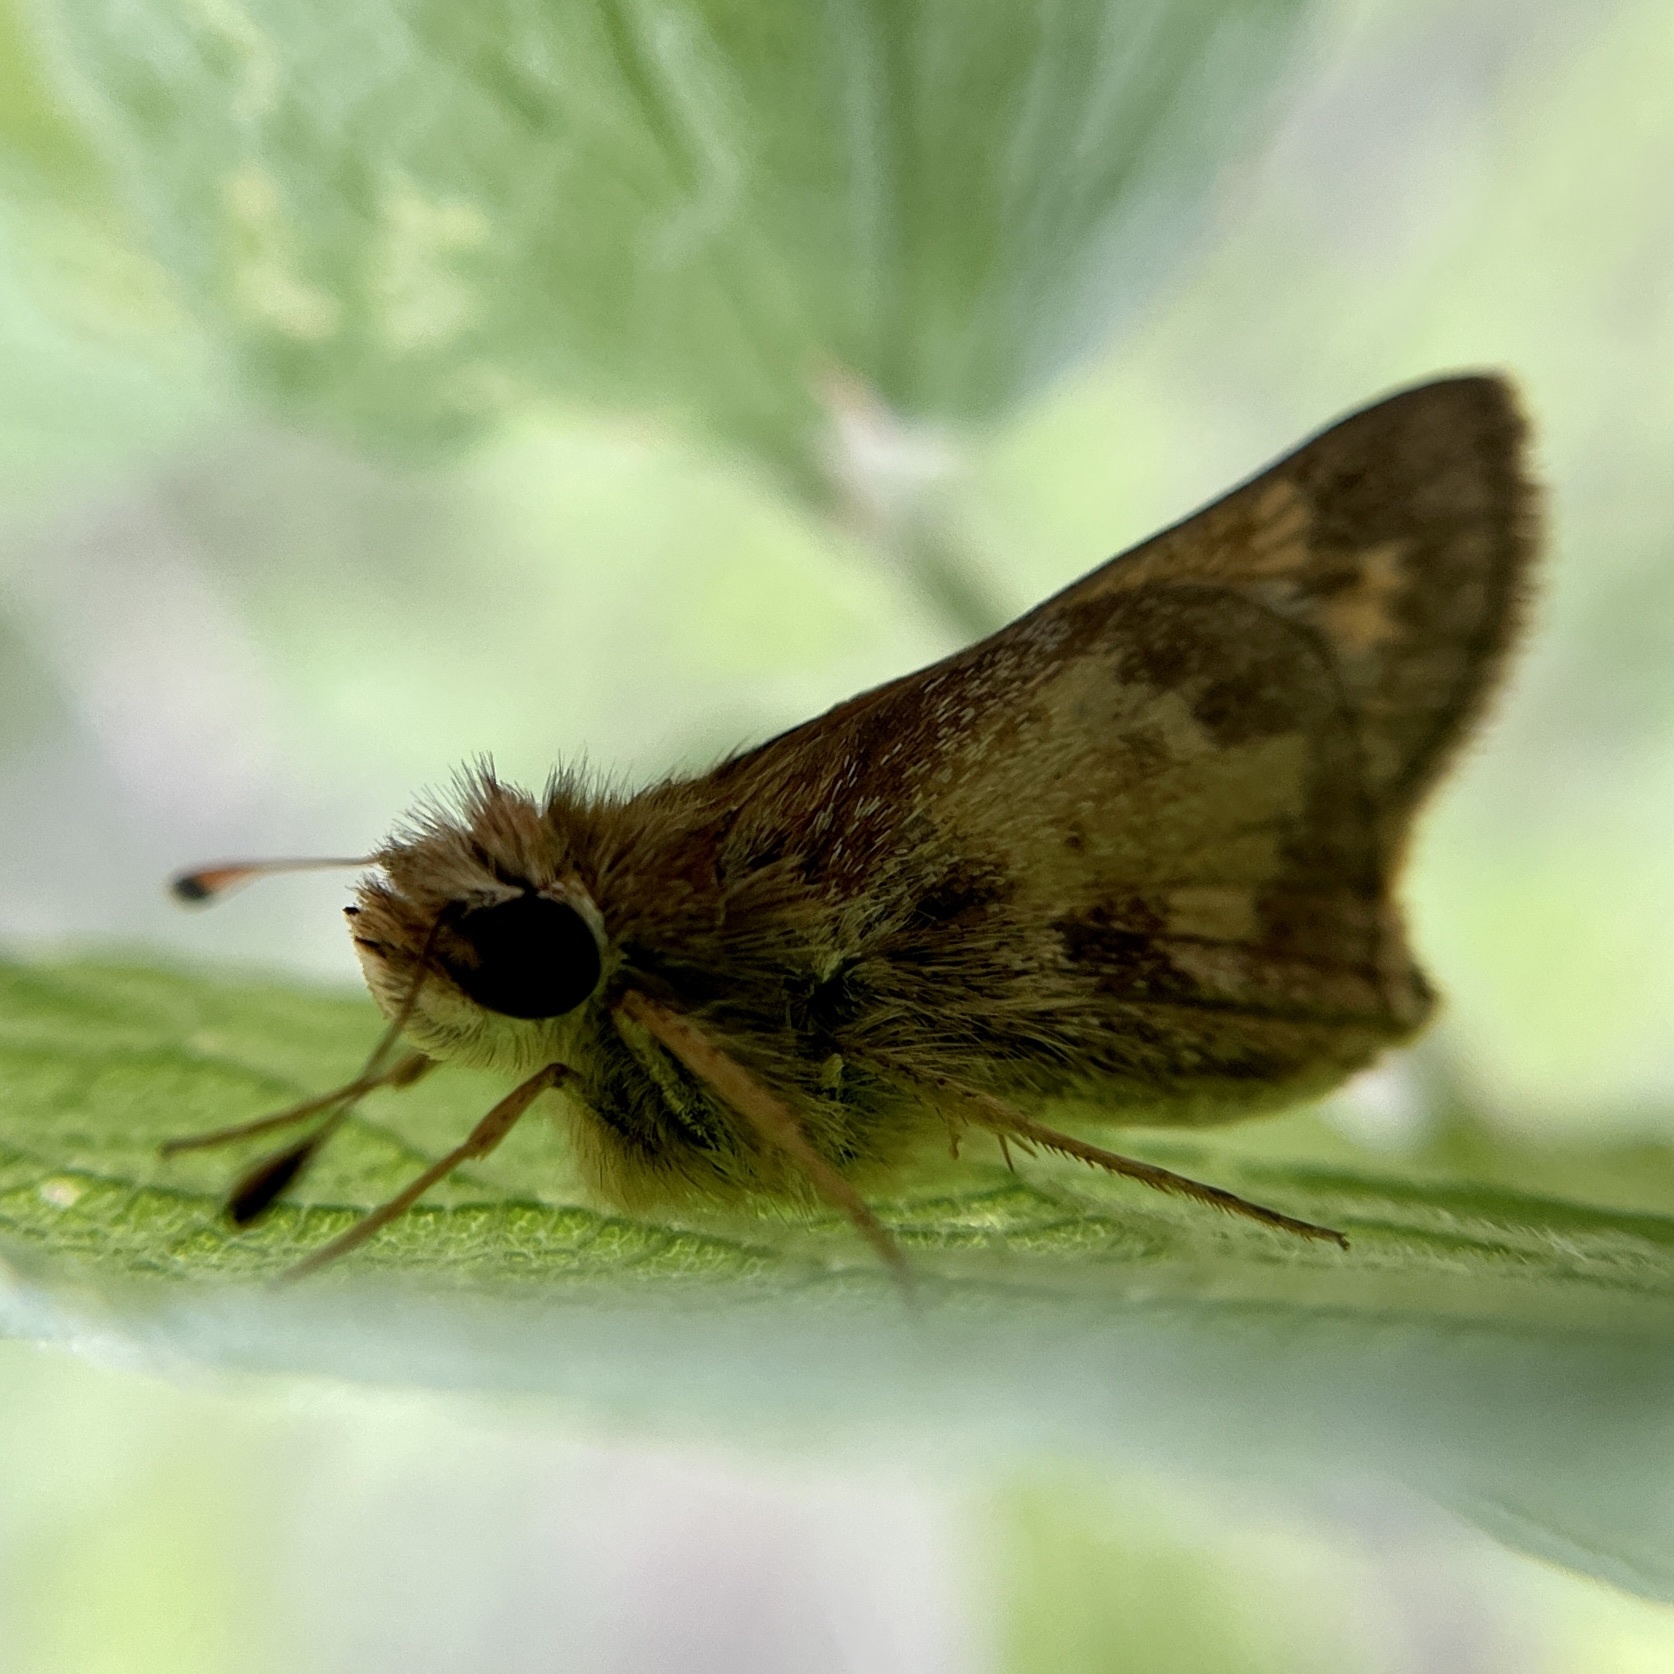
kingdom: Animalia
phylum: Arthropoda
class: Insecta
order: Lepidoptera
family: Hesperiidae
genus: Atalopedes
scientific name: Atalopedes
